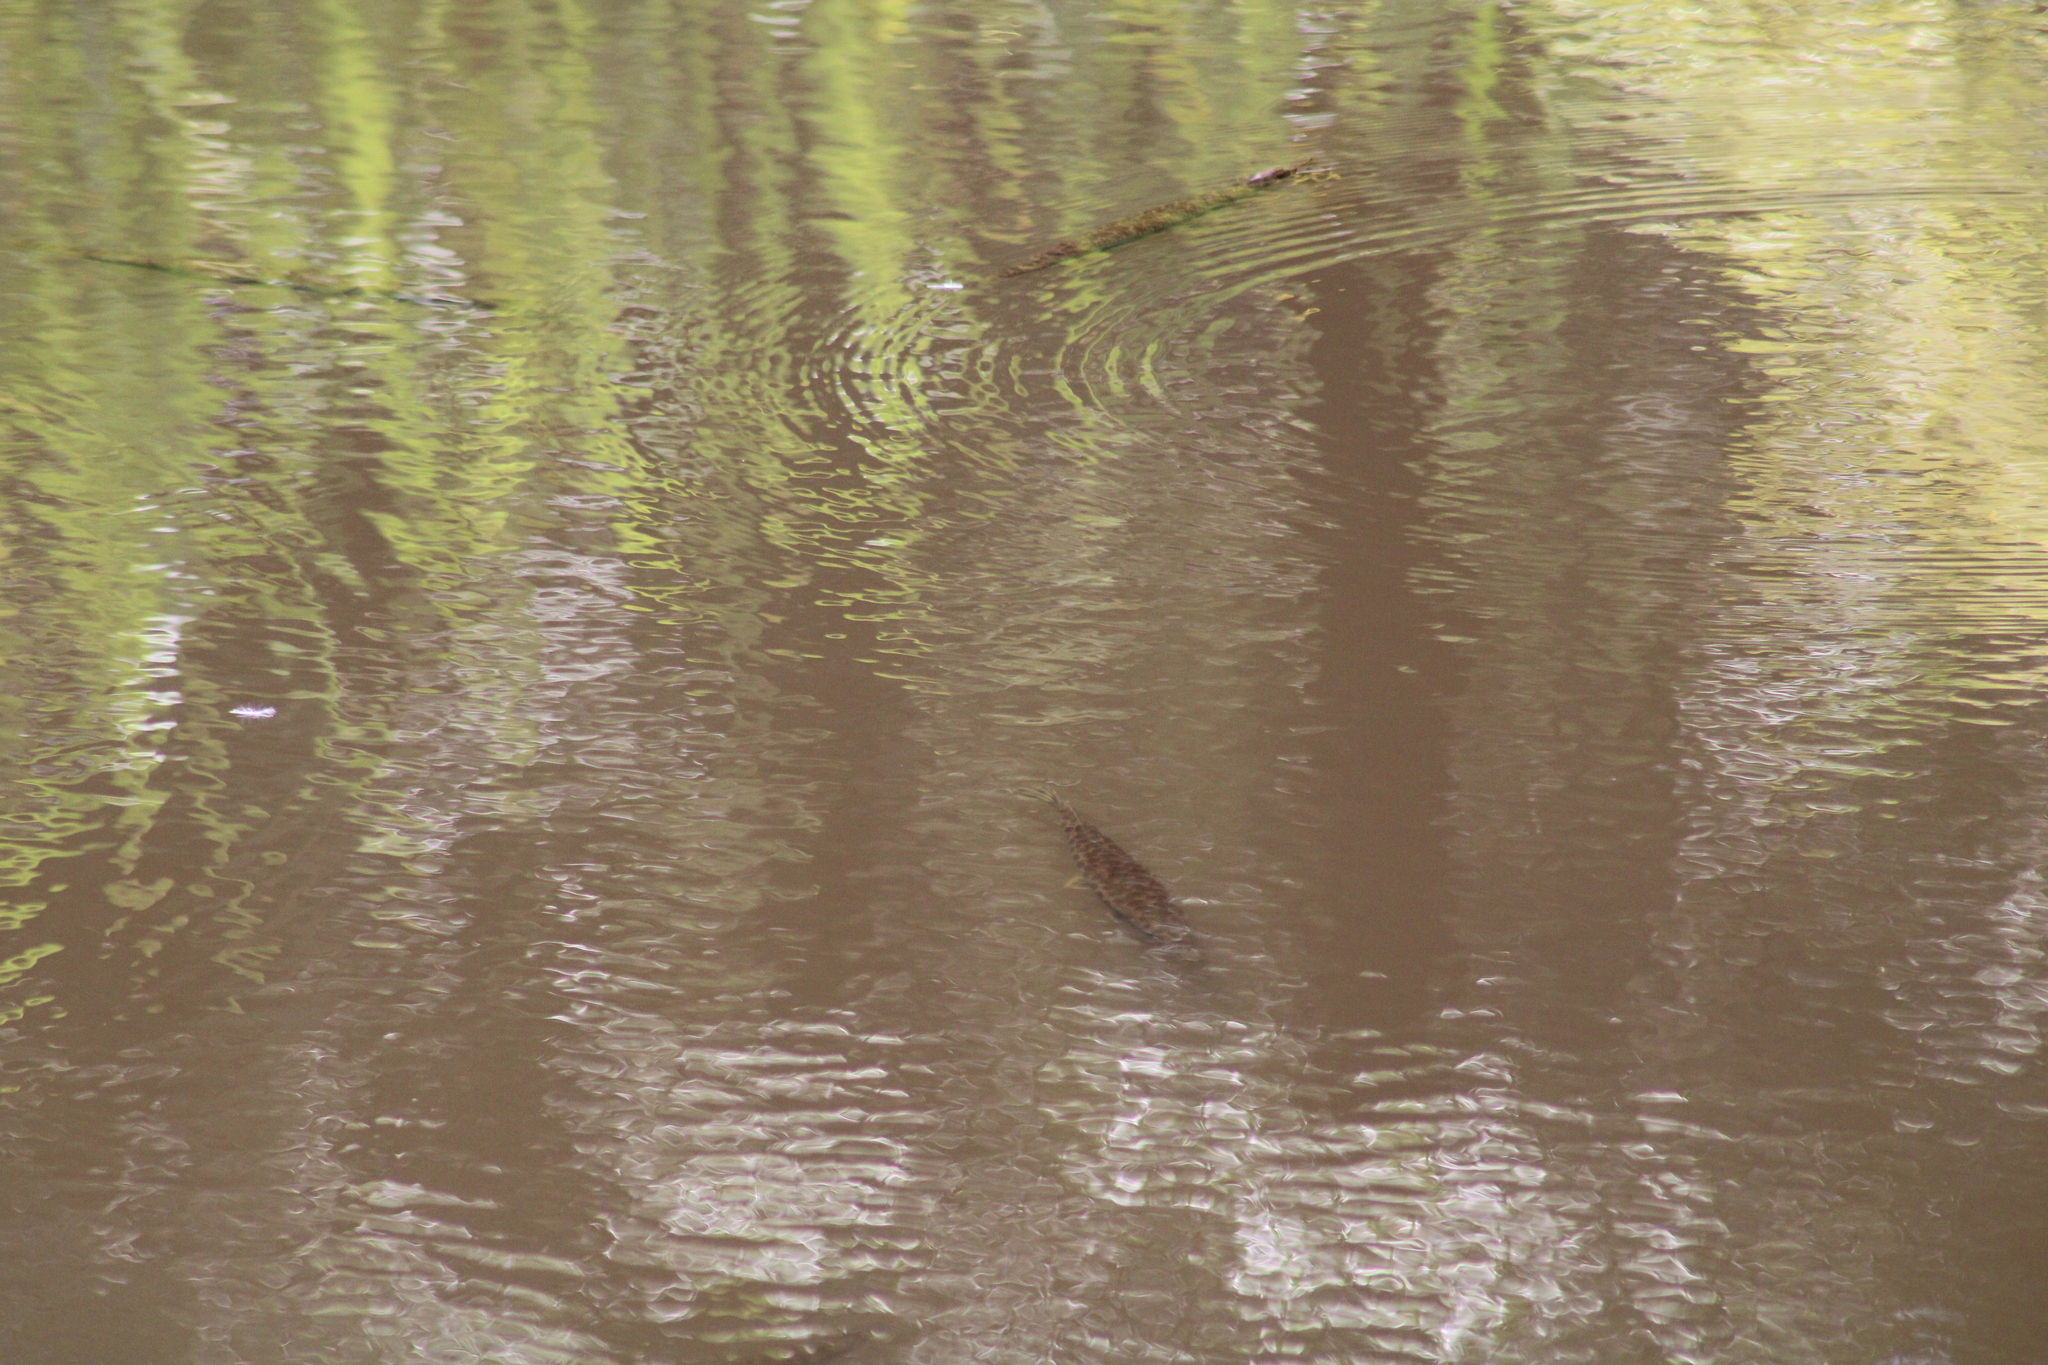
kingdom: Animalia
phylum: Chordata
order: Lepisosteiformes
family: Lepisosteidae
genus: Lepisosteus
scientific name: Lepisosteus platyrhincus
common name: Florida gar
